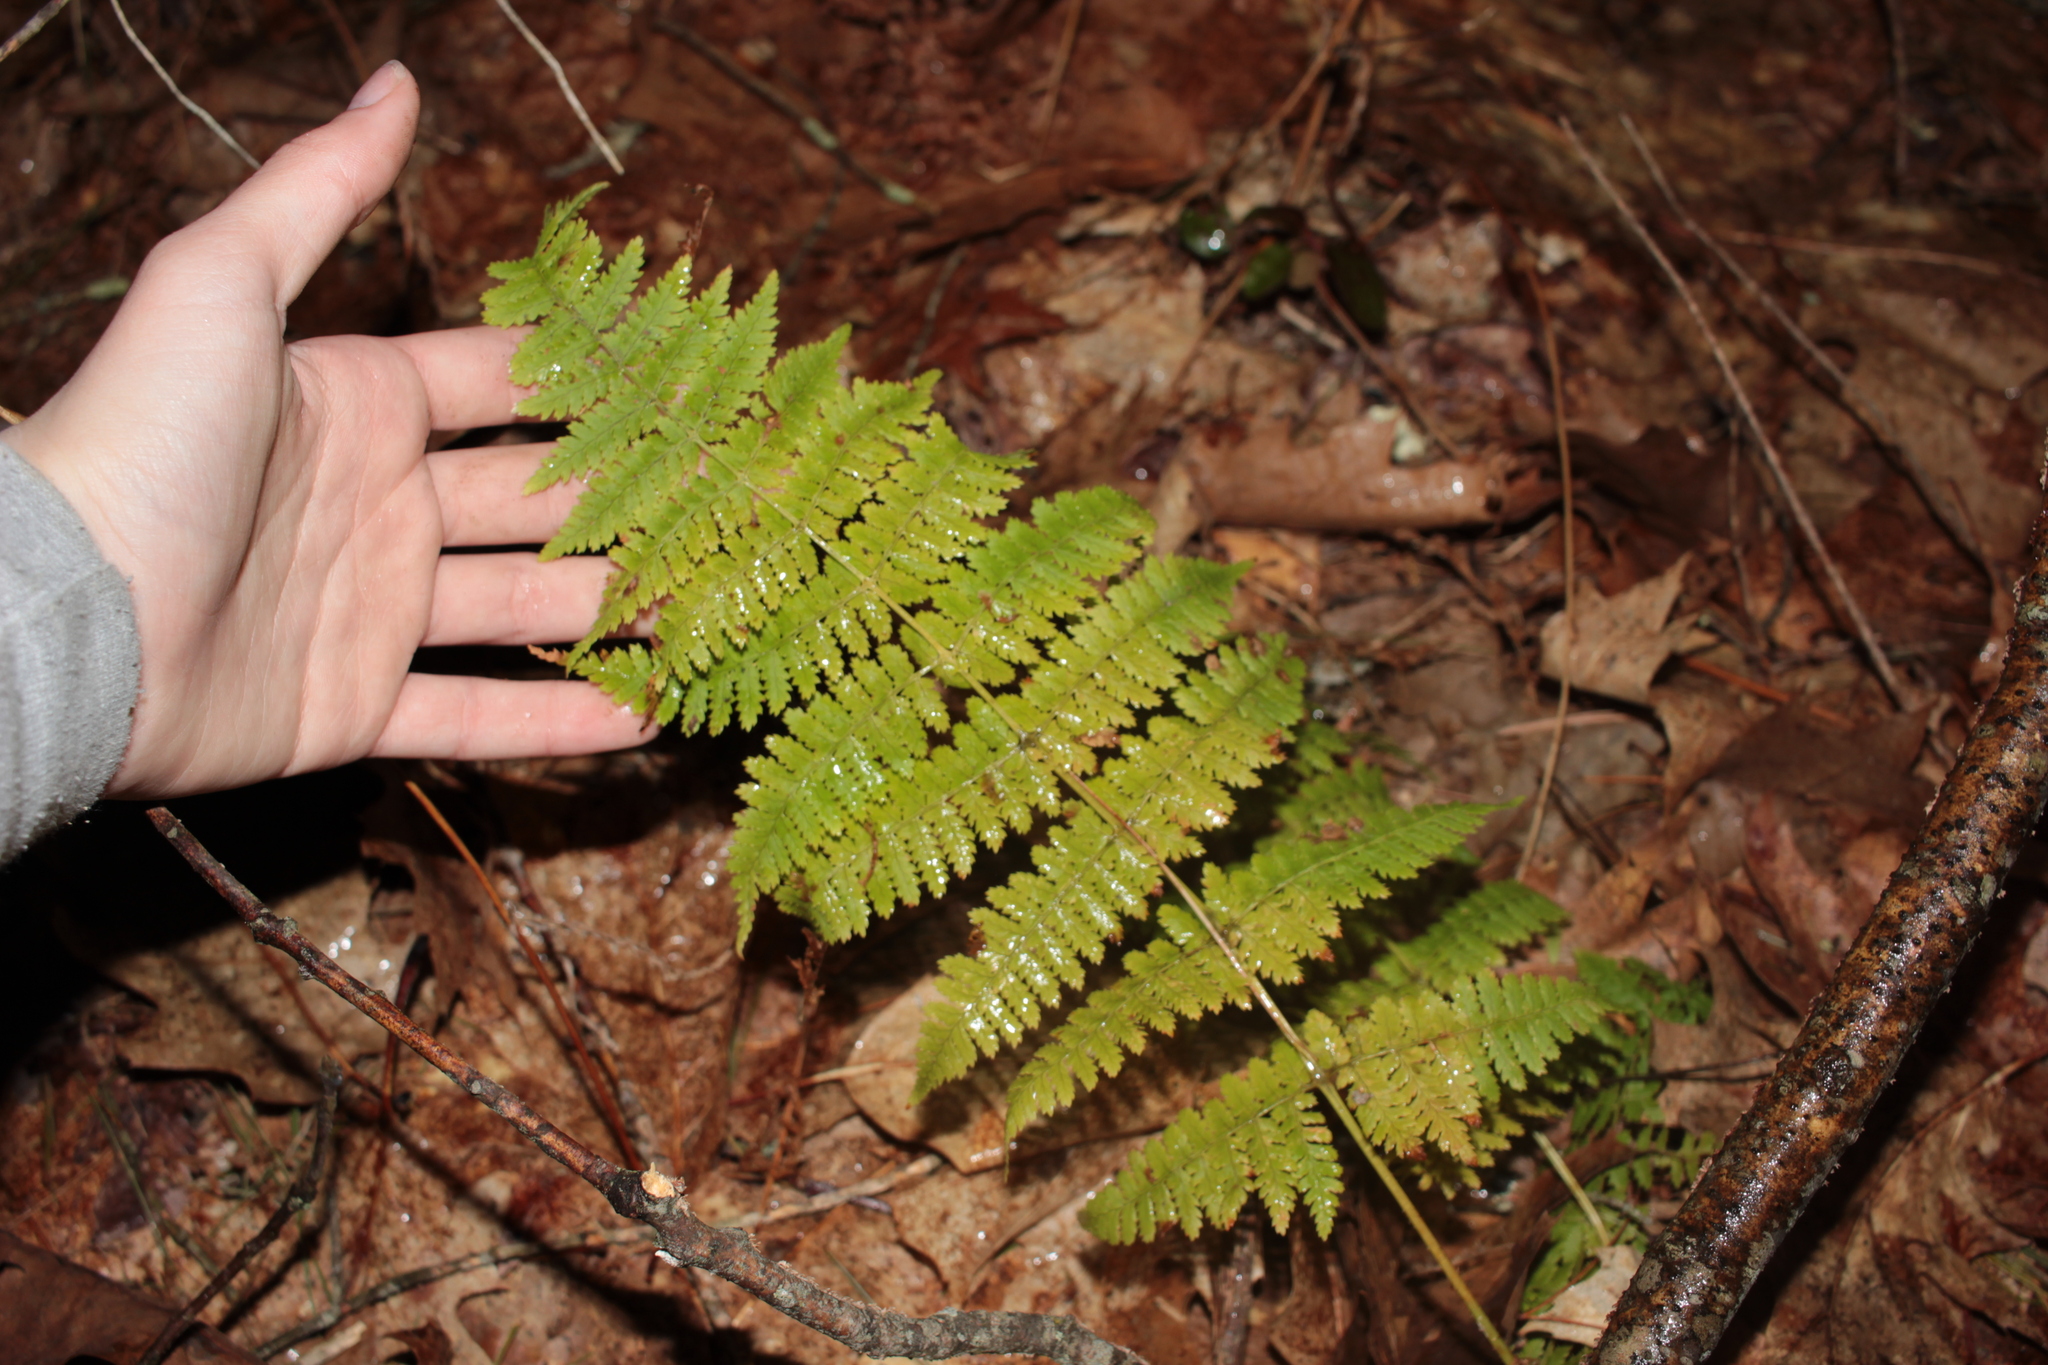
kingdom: Plantae
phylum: Tracheophyta
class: Polypodiopsida
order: Polypodiales
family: Dryopteridaceae
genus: Dryopteris
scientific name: Dryopteris triploidea
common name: Fruitful wood fern
